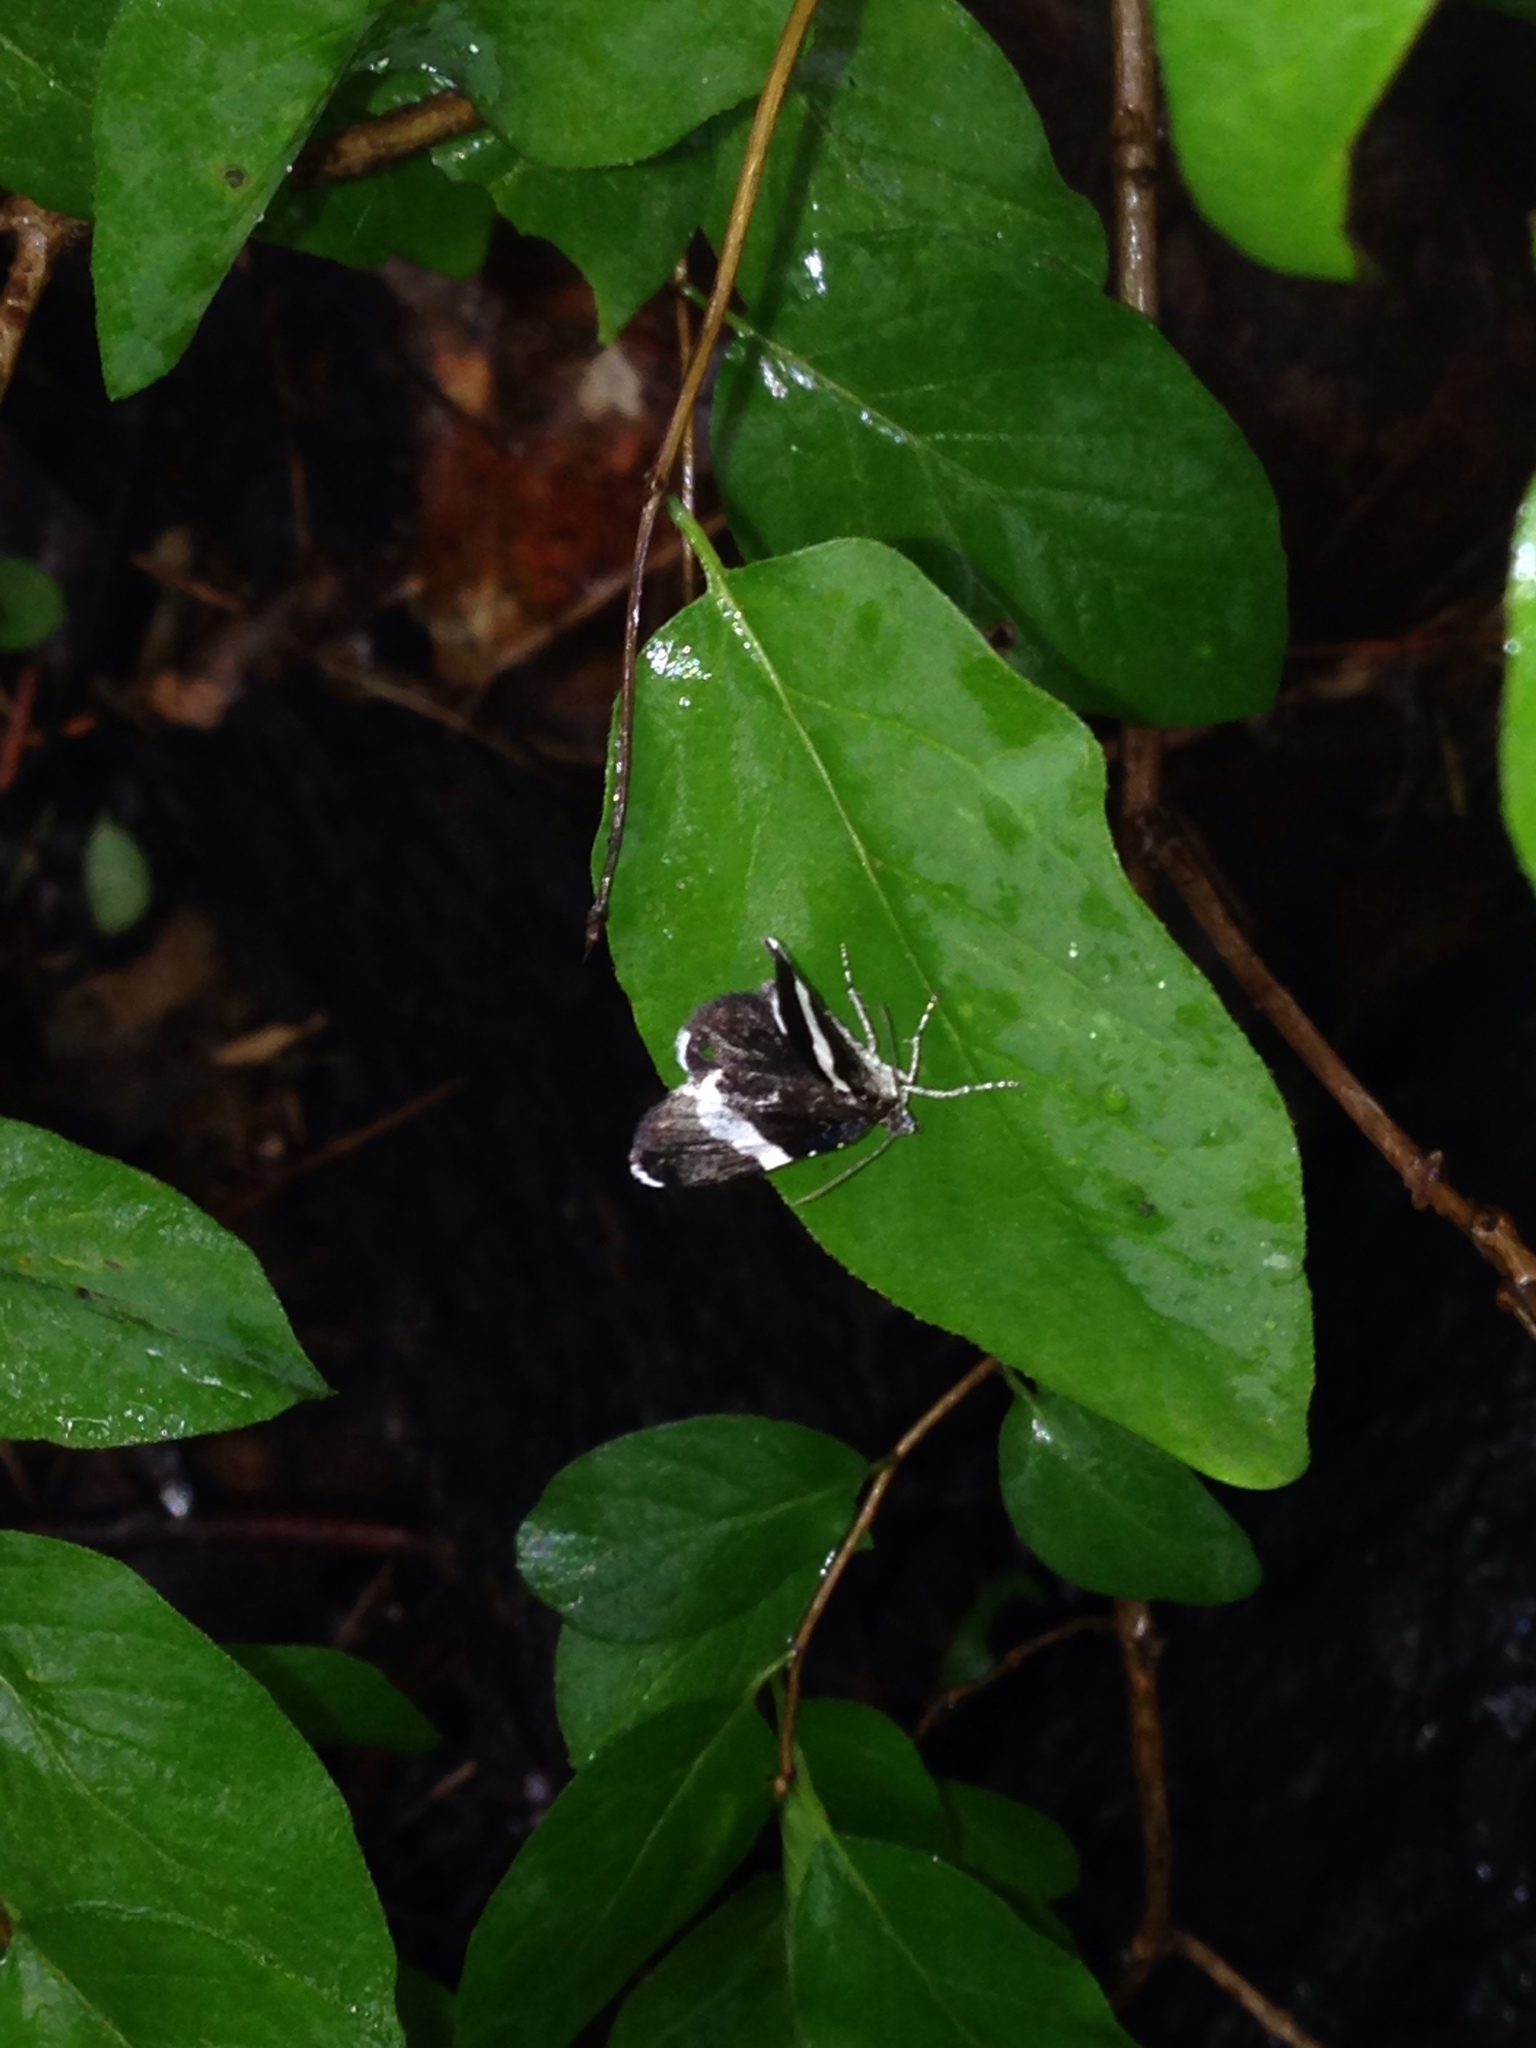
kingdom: Animalia
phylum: Arthropoda
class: Insecta
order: Lepidoptera
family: Geometridae
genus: Trichodezia
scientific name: Trichodezia albovittata
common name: White striped black
